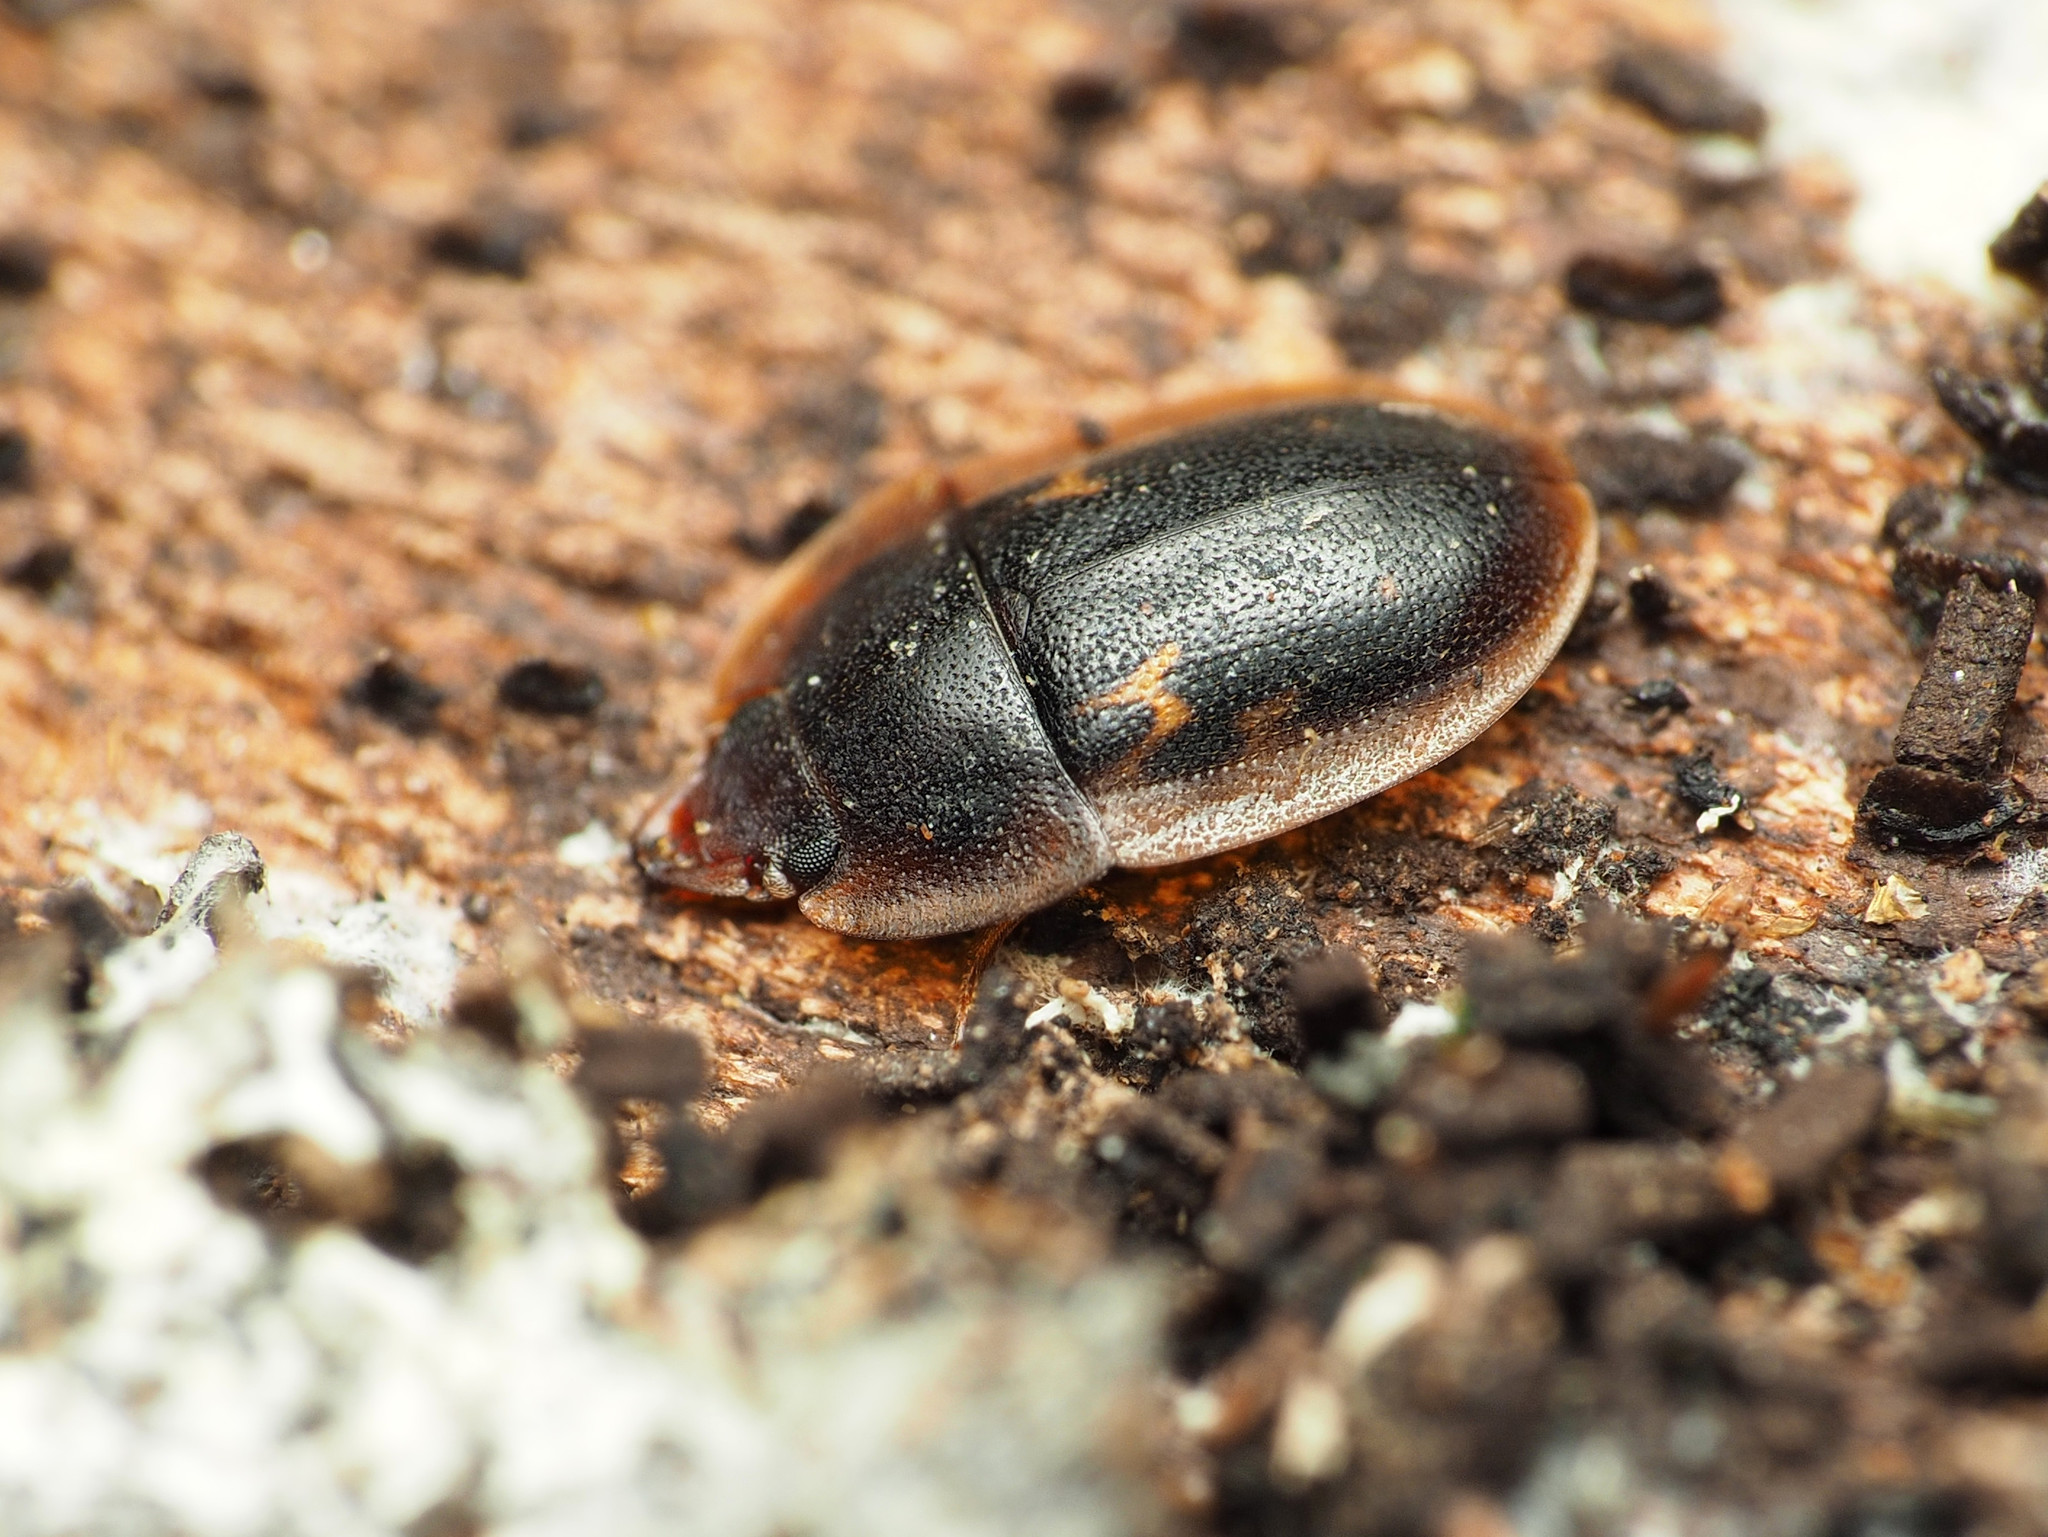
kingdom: Animalia
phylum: Arthropoda
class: Insecta
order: Coleoptera
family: Nitidulidae
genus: Prometopia
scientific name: Prometopia sexmaculata
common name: Six-spotted sap-feeding beetle
